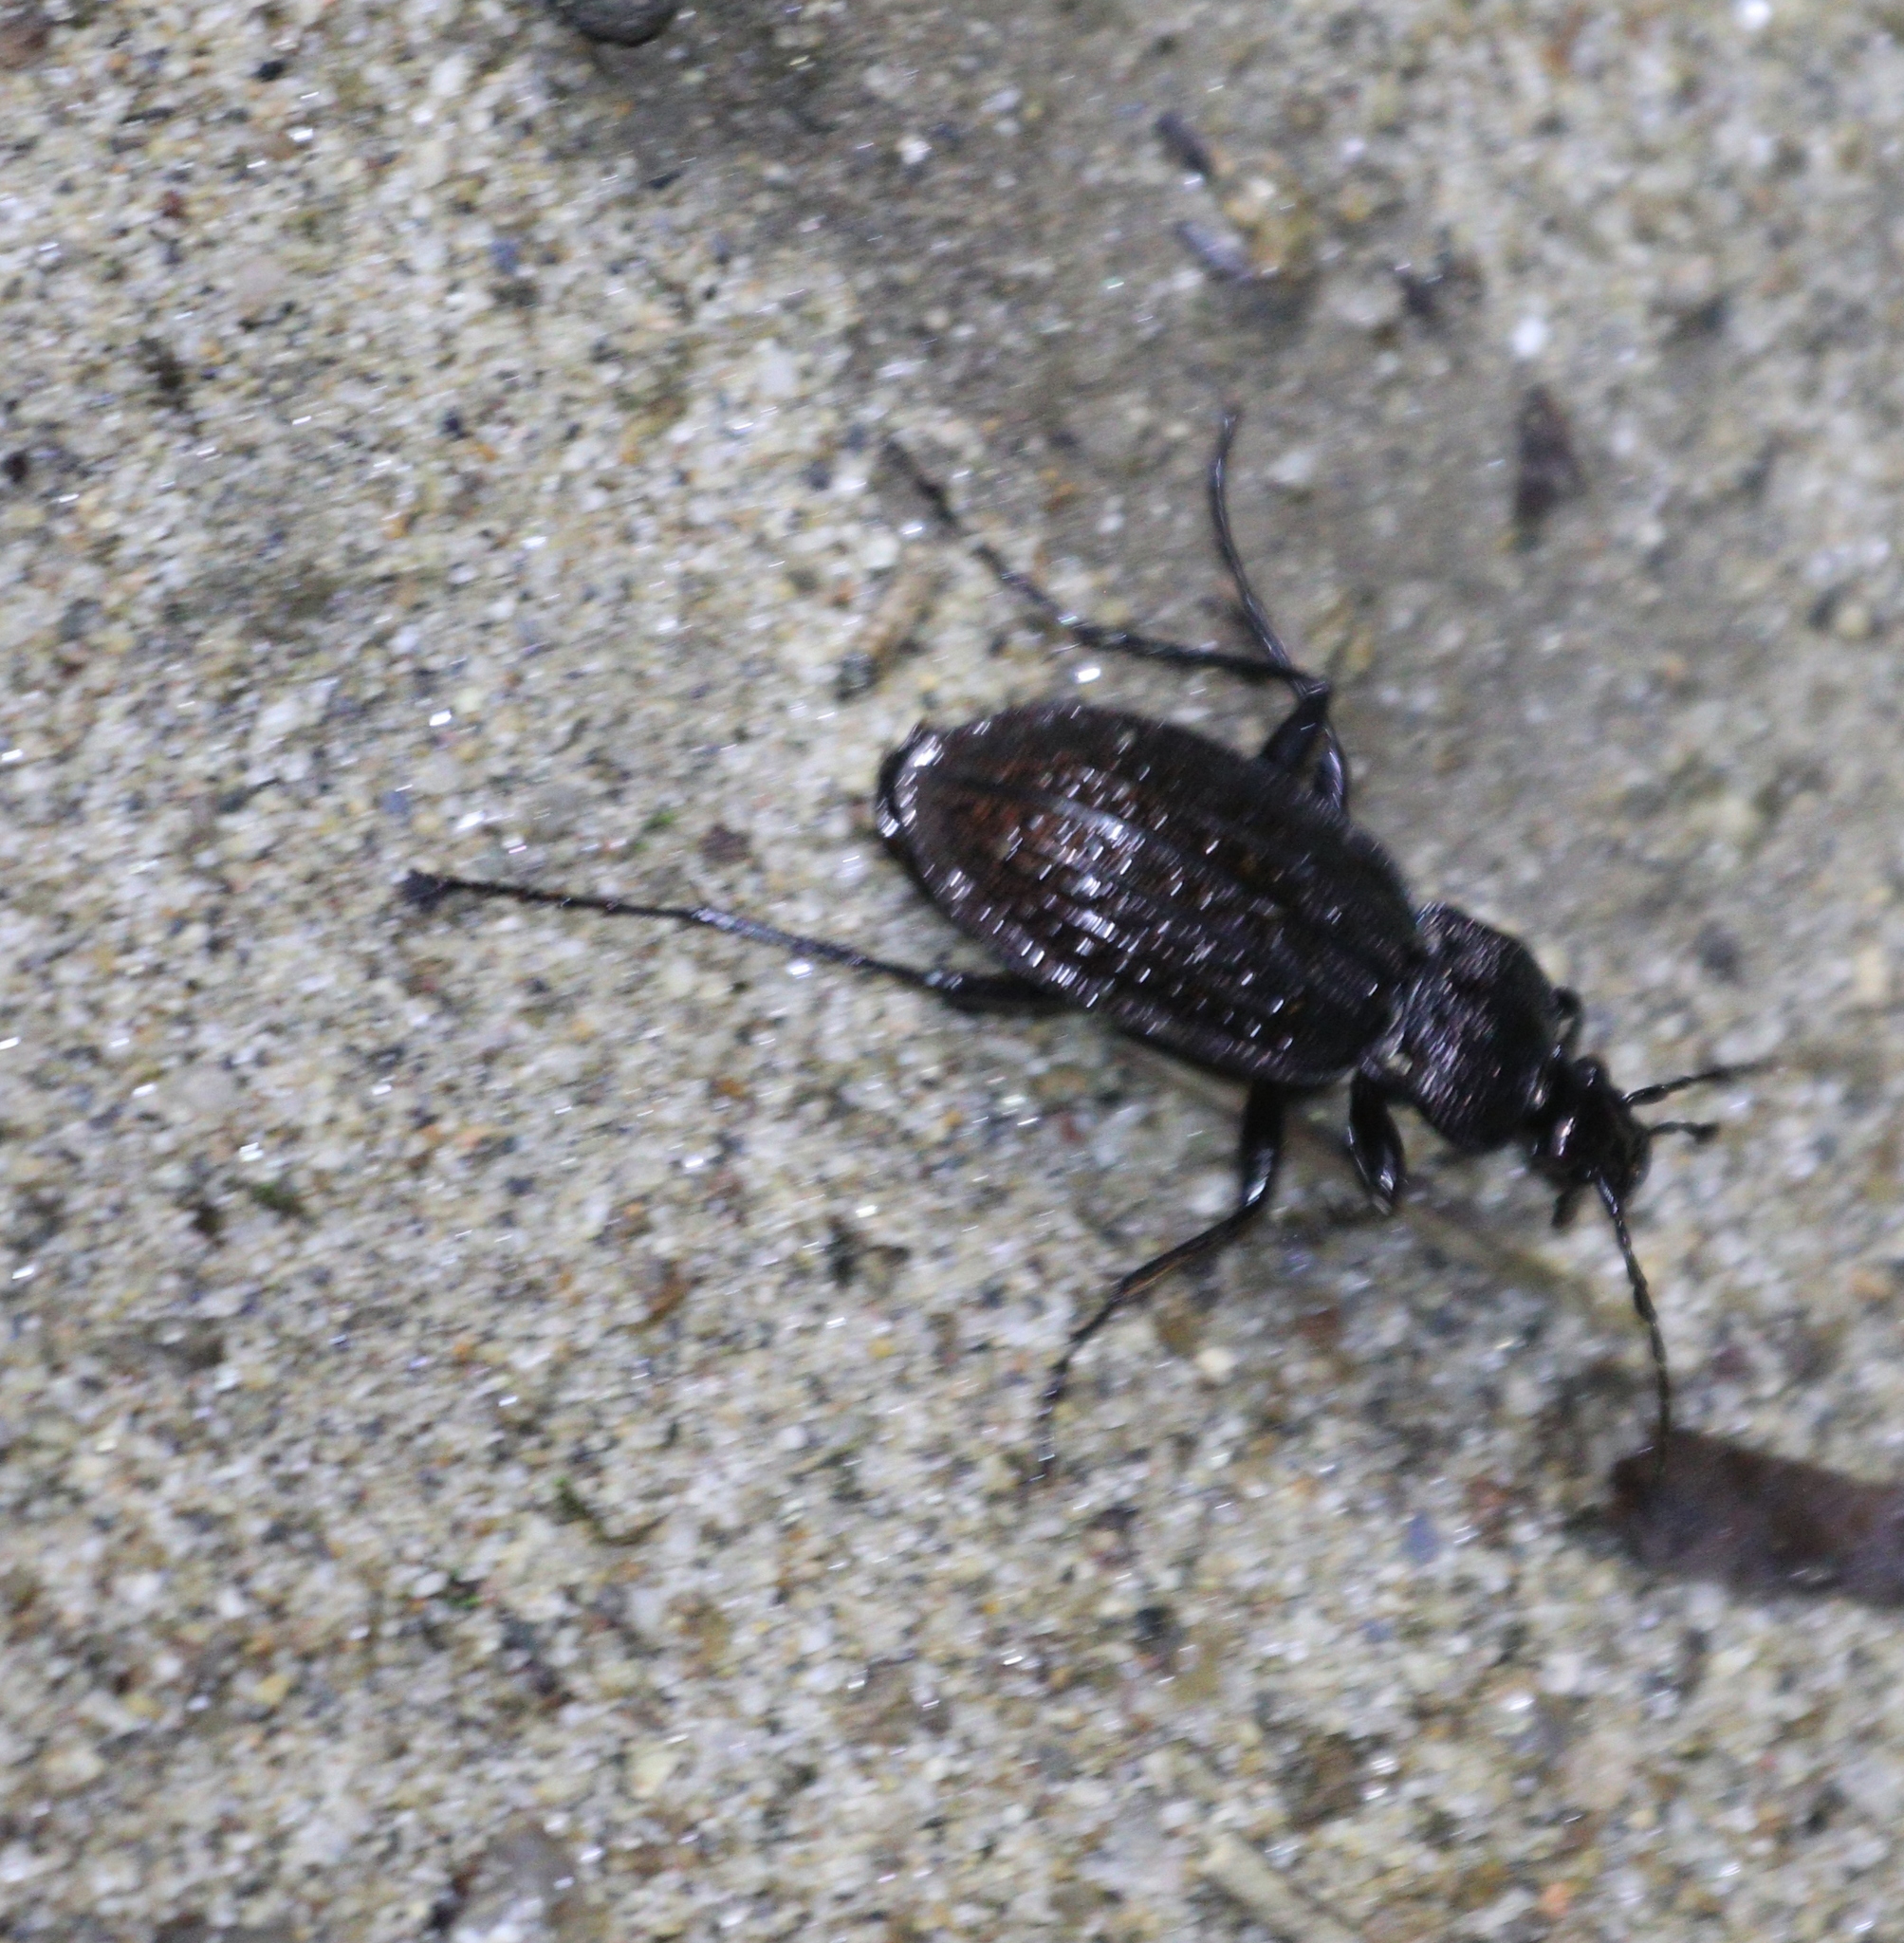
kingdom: Animalia
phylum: Arthropoda
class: Insecta
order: Coleoptera
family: Carabidae
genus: Carabus
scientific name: Carabus rugosus
